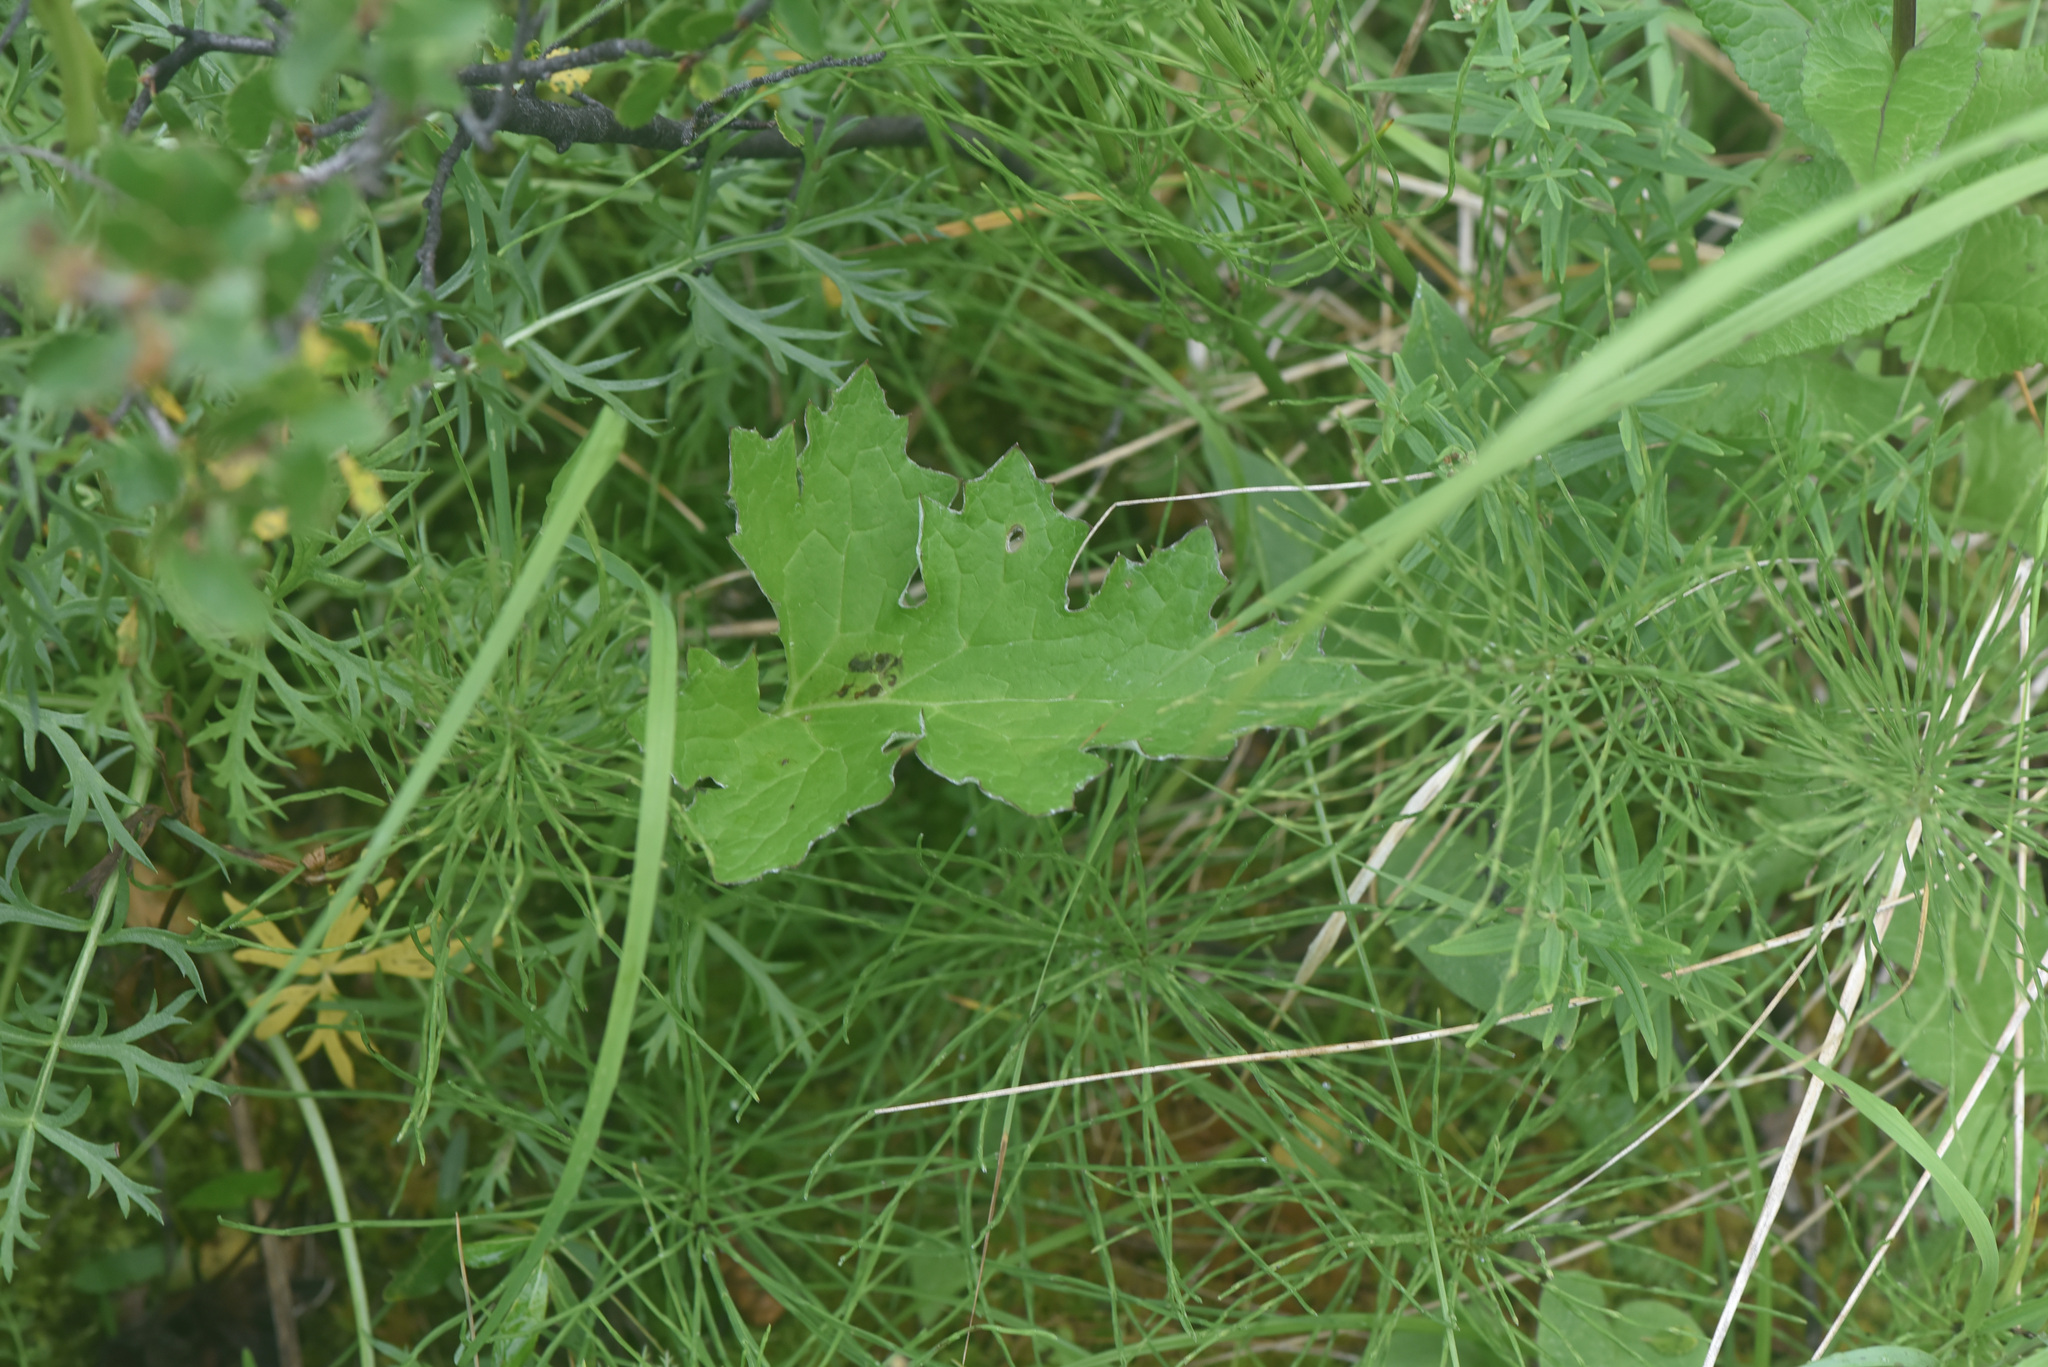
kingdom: Plantae
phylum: Tracheophyta
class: Magnoliopsida
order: Asterales
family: Asteraceae
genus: Petasites
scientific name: Petasites frigidus
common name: Arctic butterbur
